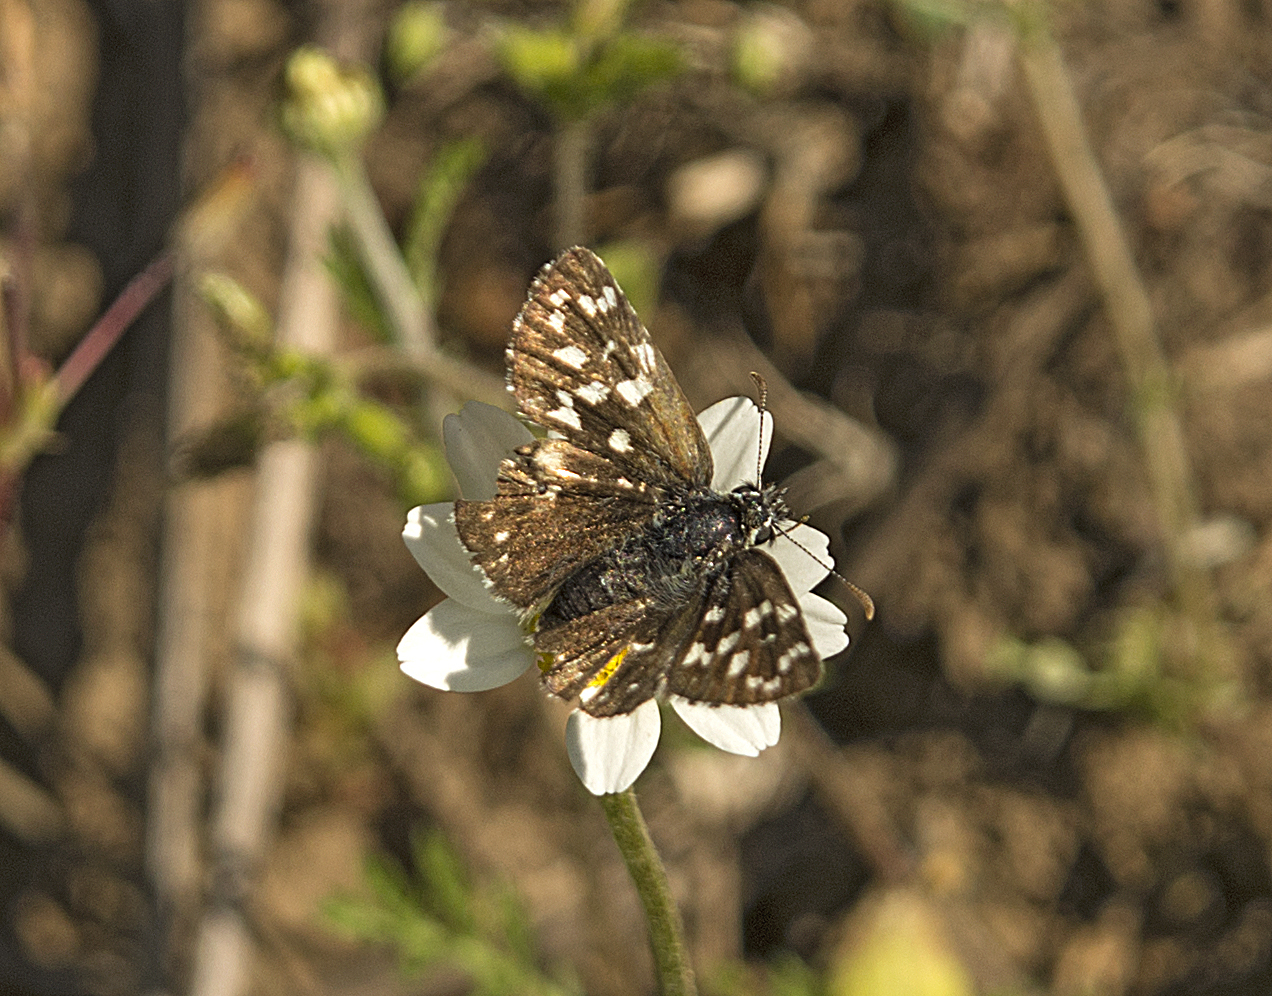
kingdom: Animalia
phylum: Arthropoda
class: Insecta
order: Lepidoptera
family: Hesperiidae
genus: Pyrgus
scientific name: Pyrgus malvae
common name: Grizzled skipper
